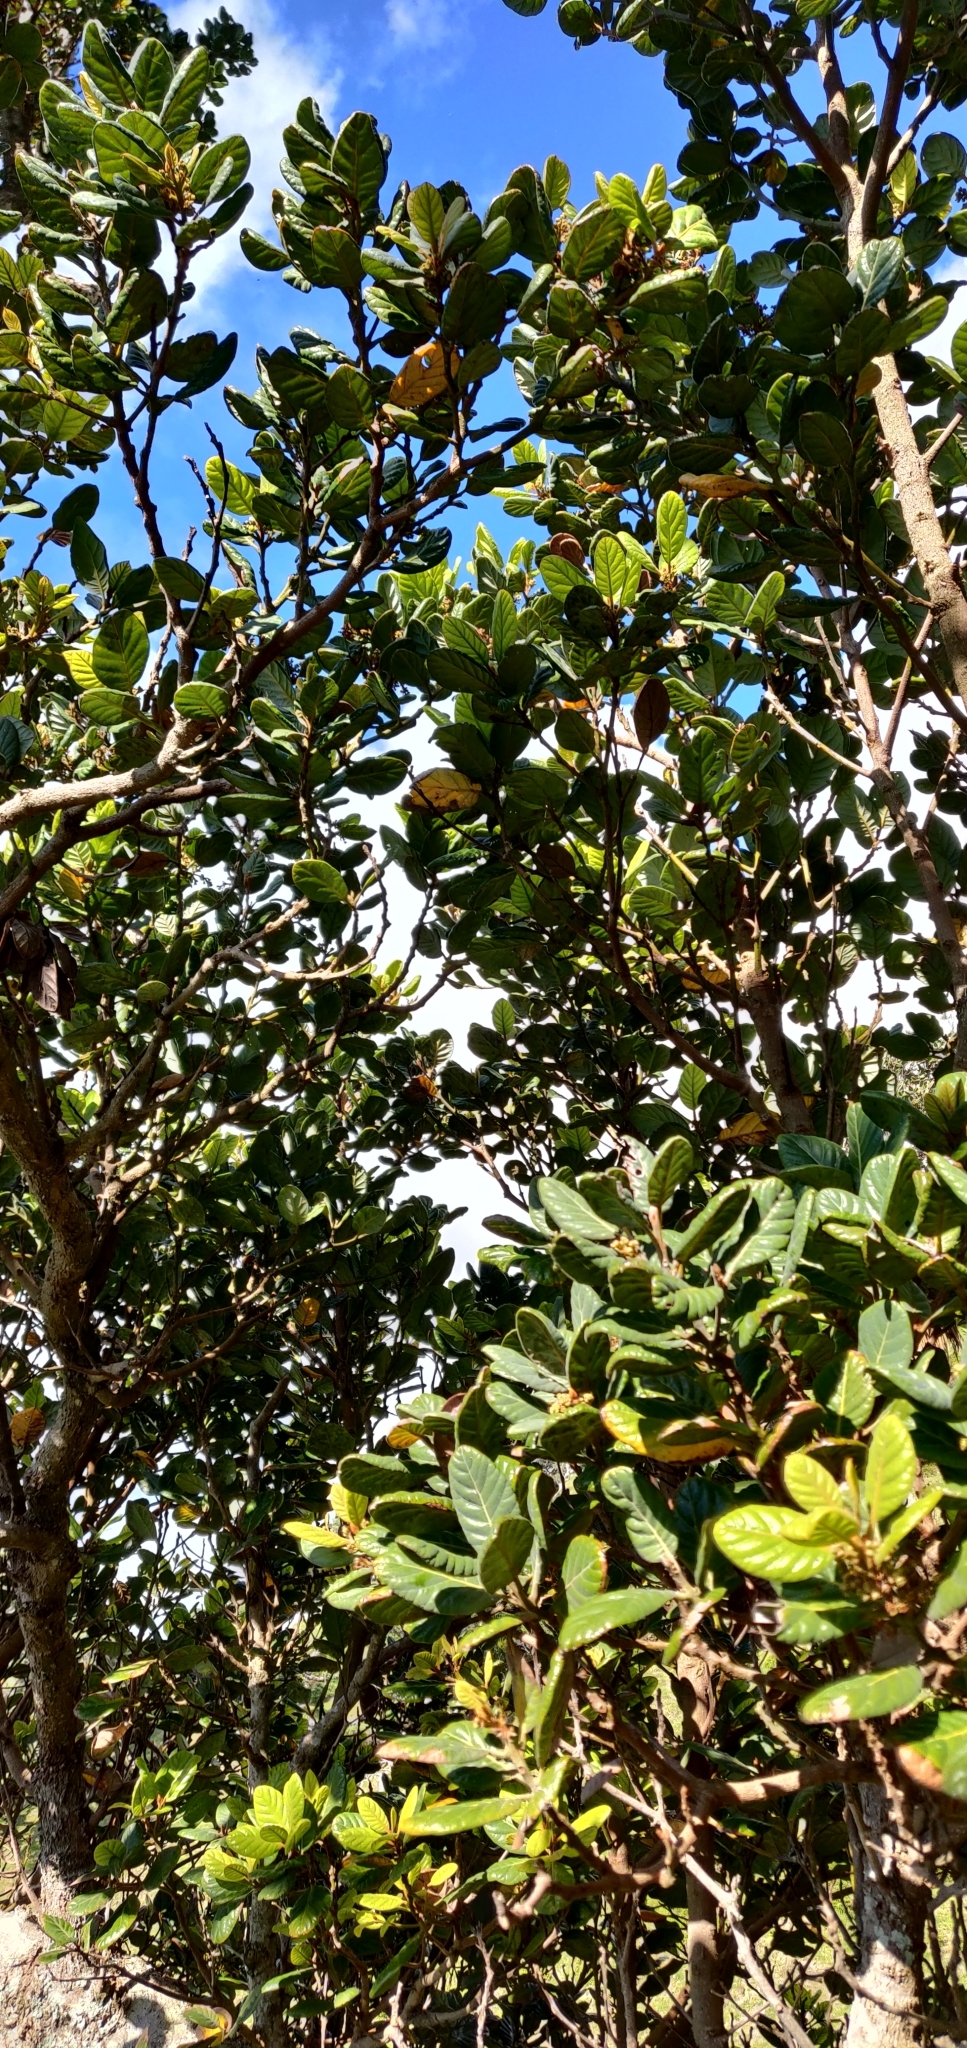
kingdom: Plantae
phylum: Tracheophyta
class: Magnoliopsida
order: Laurales
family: Lauraceae
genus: Beilschmiedia
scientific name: Beilschmiedia tarairi
